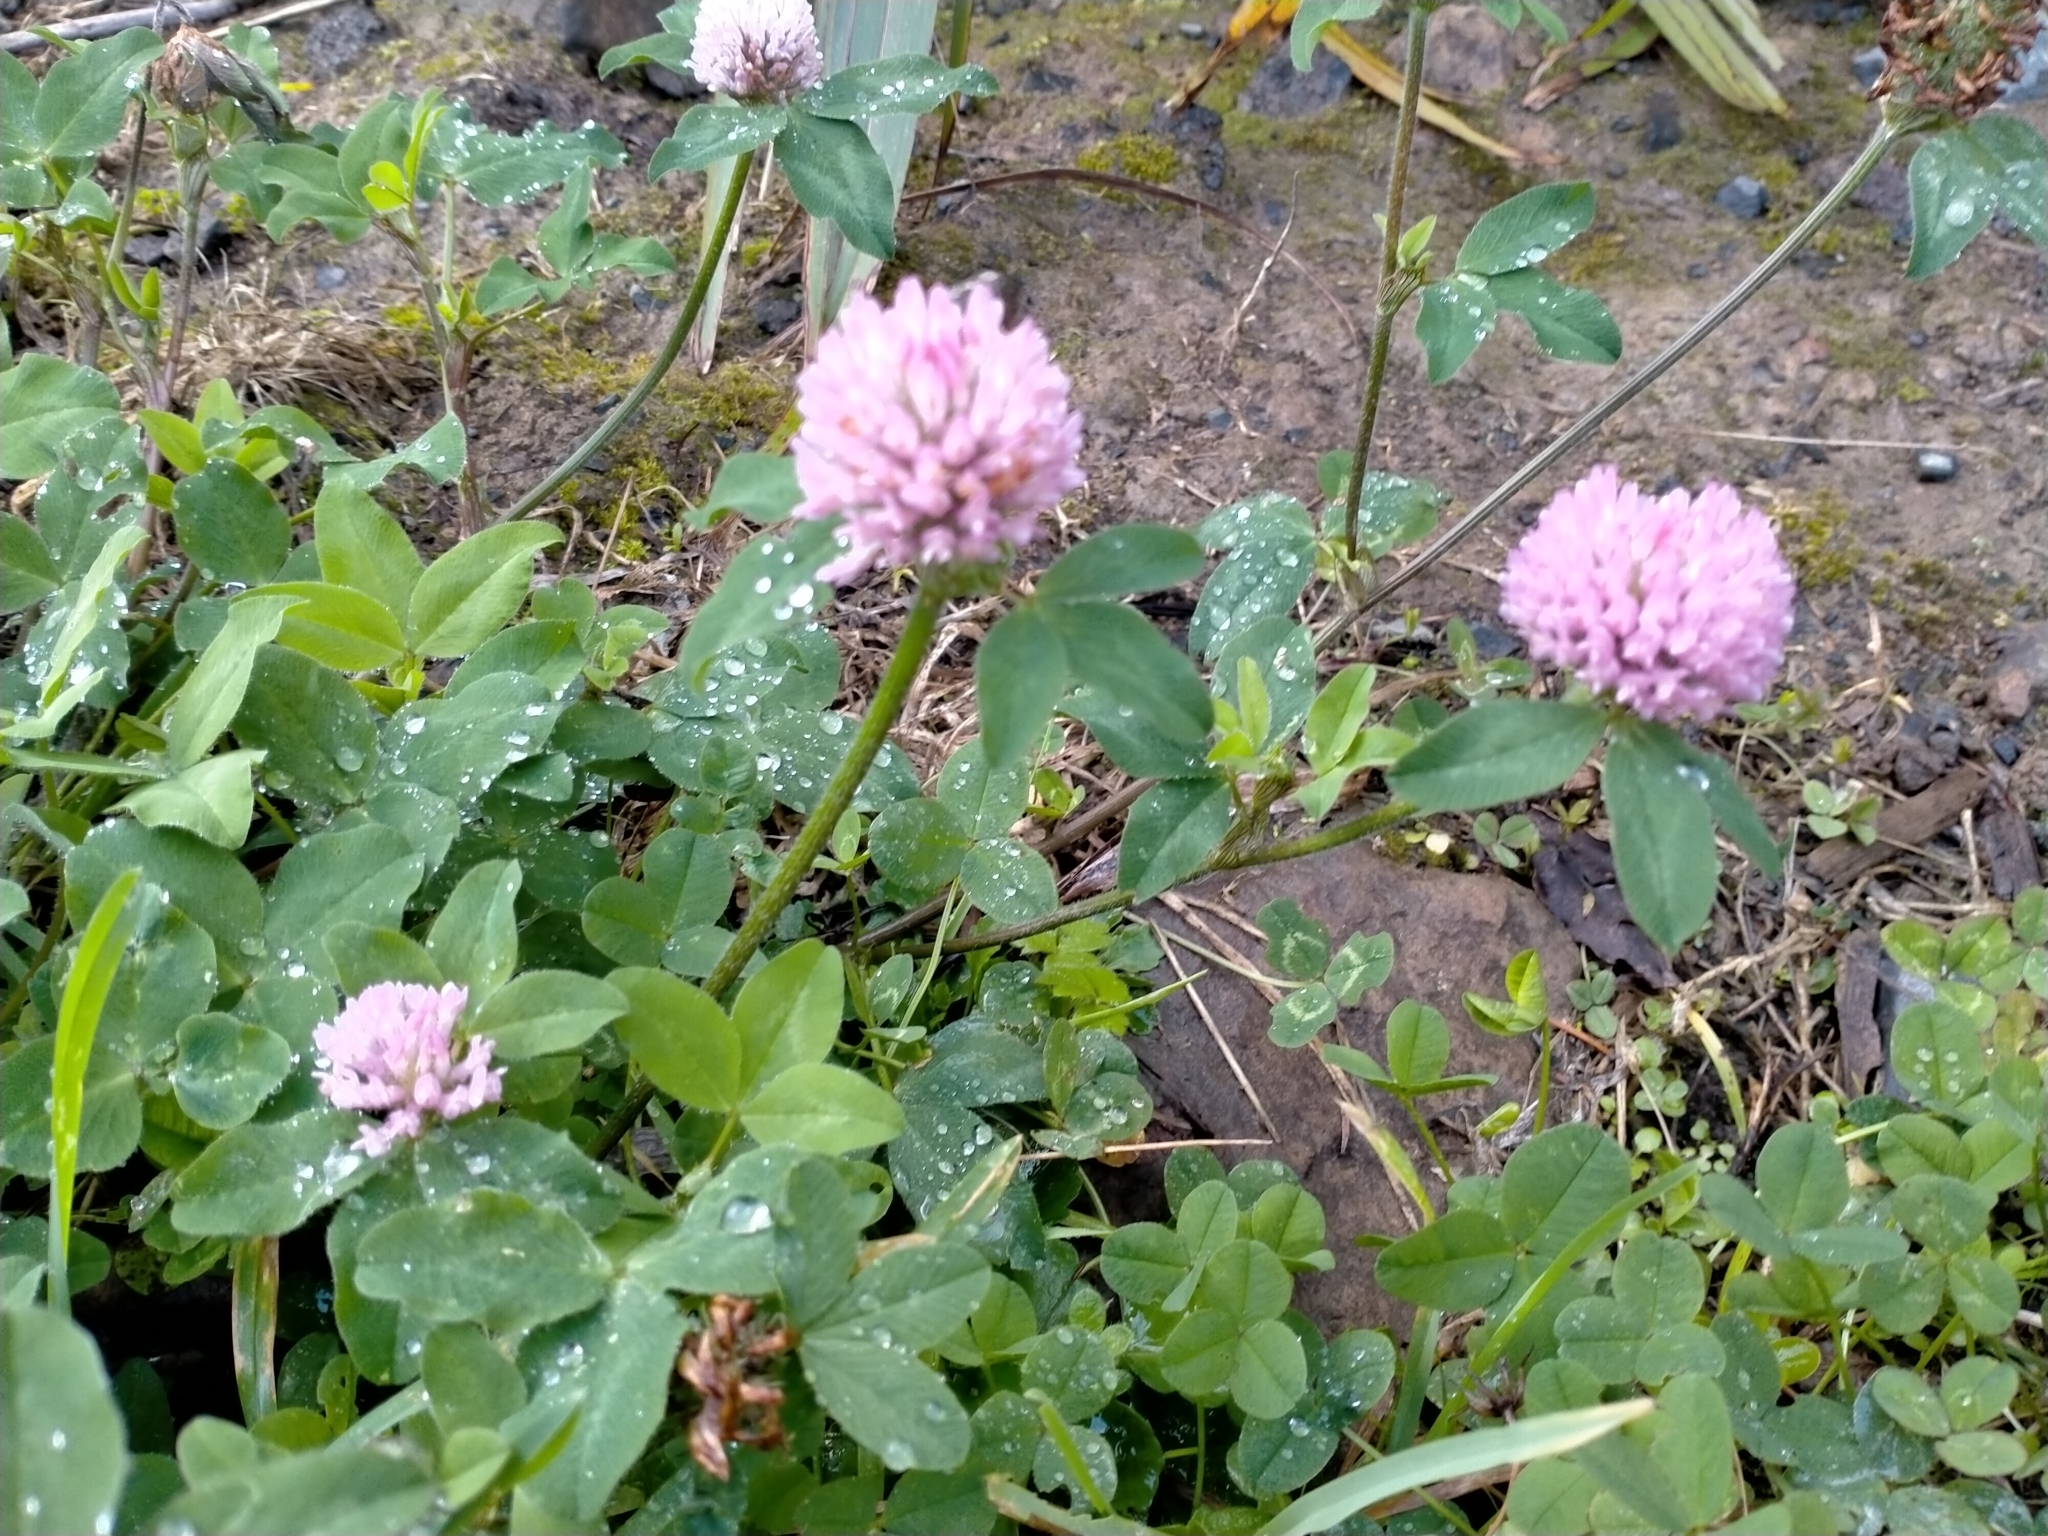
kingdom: Plantae
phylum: Tracheophyta
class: Magnoliopsida
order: Fabales
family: Fabaceae
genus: Trifolium
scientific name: Trifolium pratense
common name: Red clover
